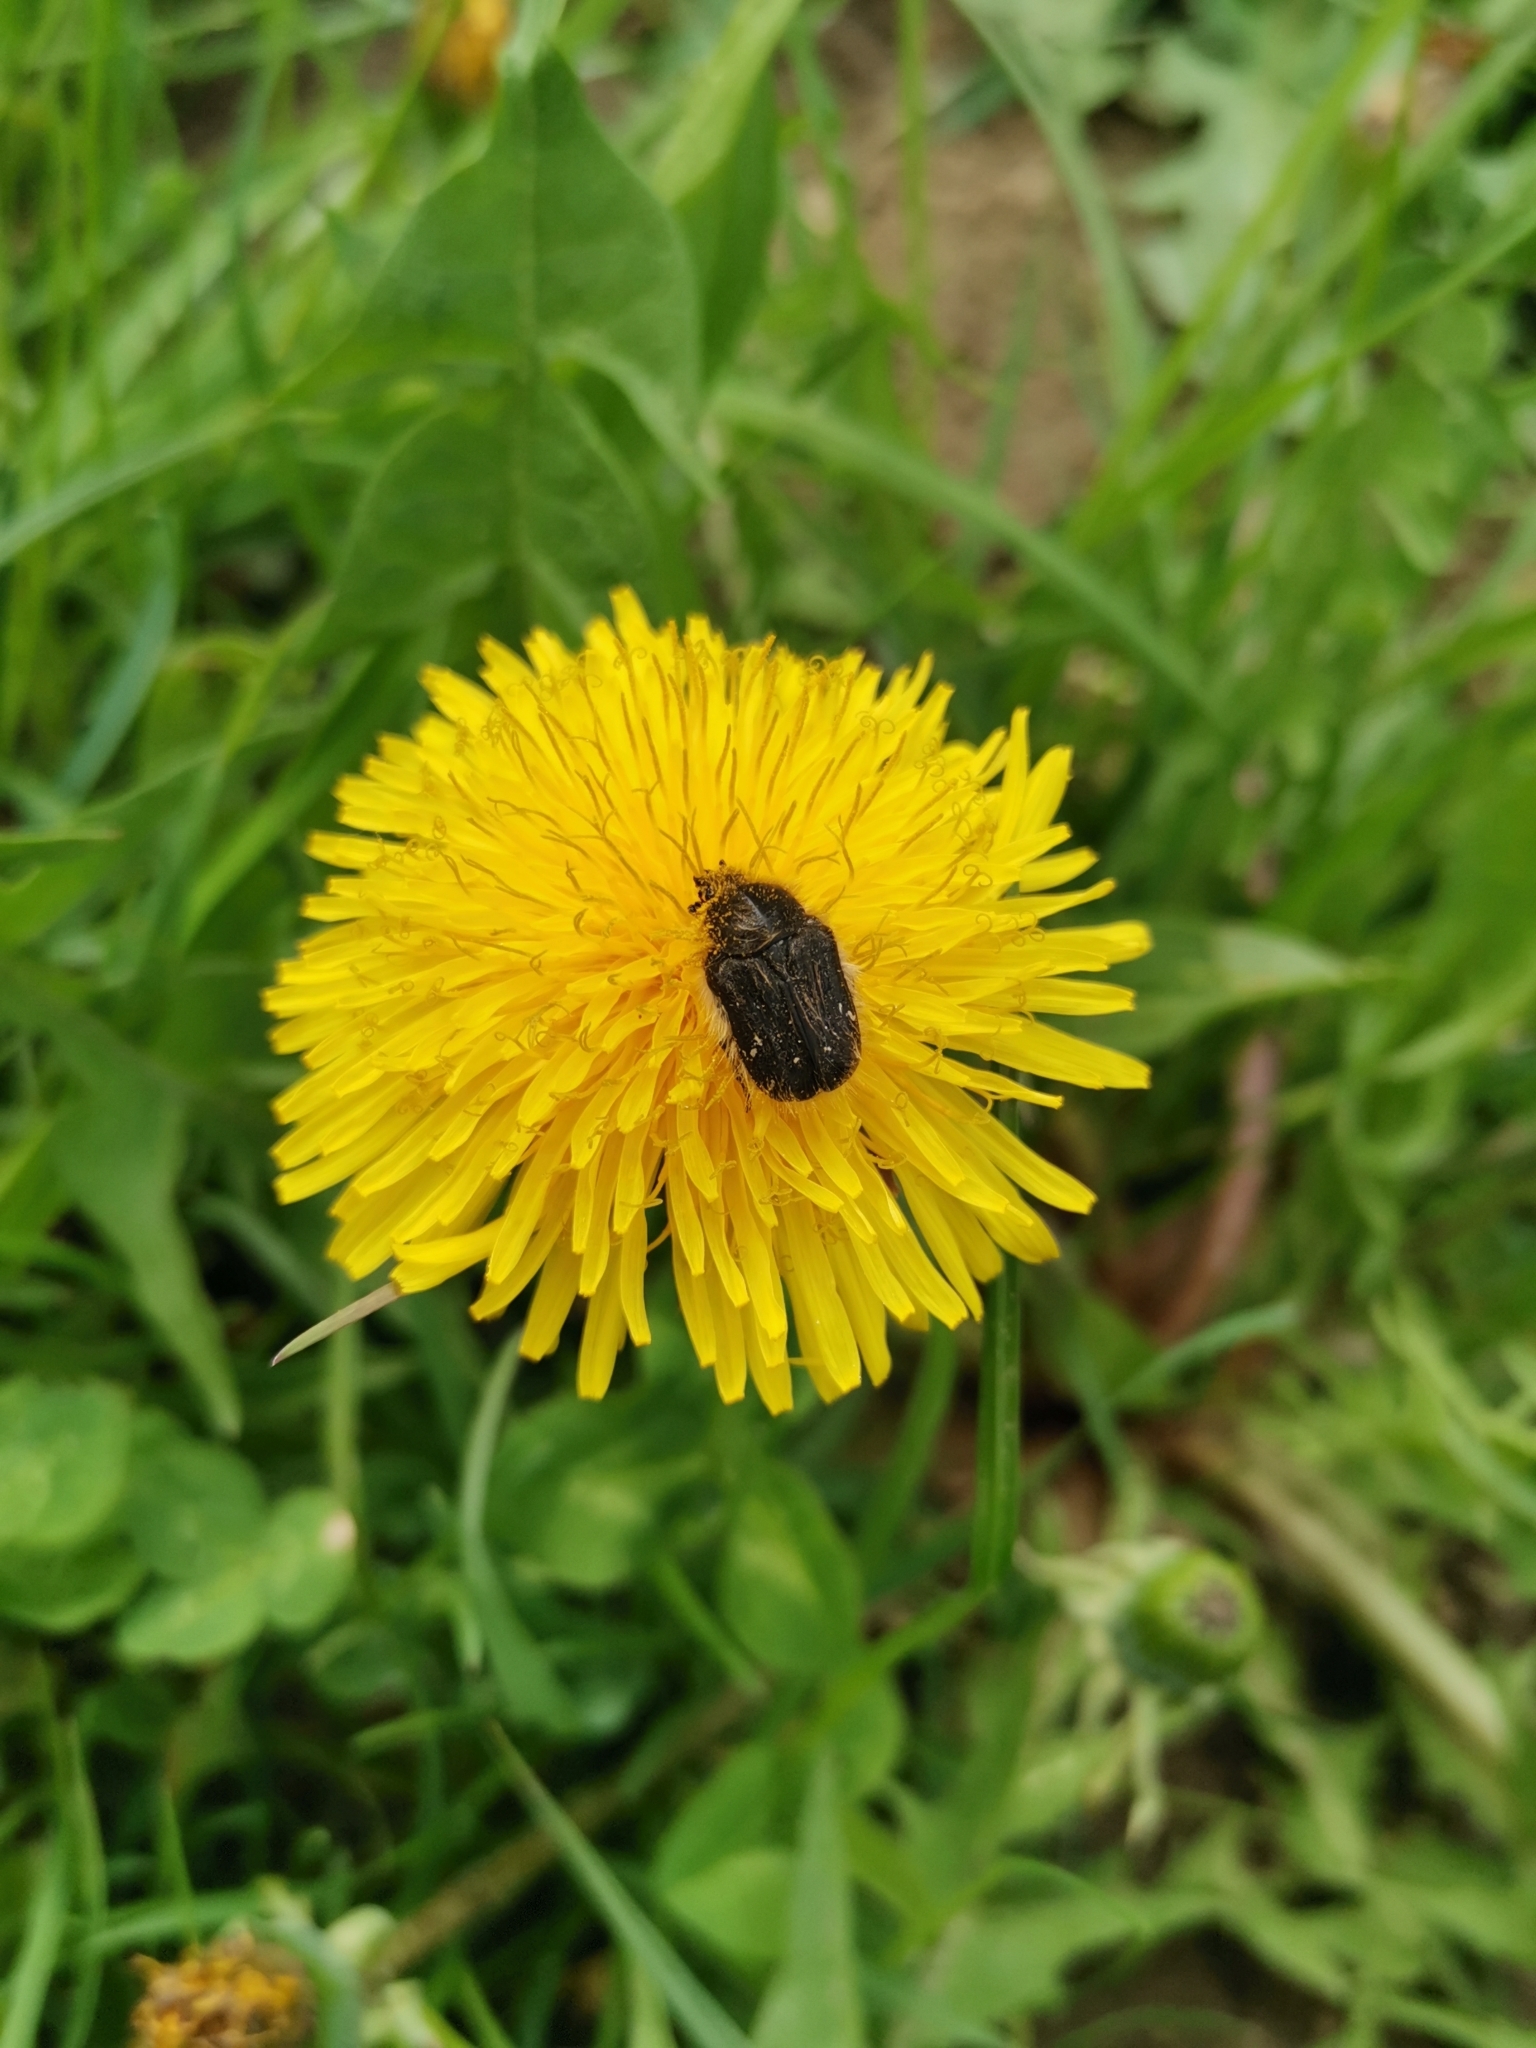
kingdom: Animalia
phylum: Arthropoda
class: Insecta
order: Coleoptera
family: Scarabaeidae
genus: Tropinota
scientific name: Tropinota hirta
